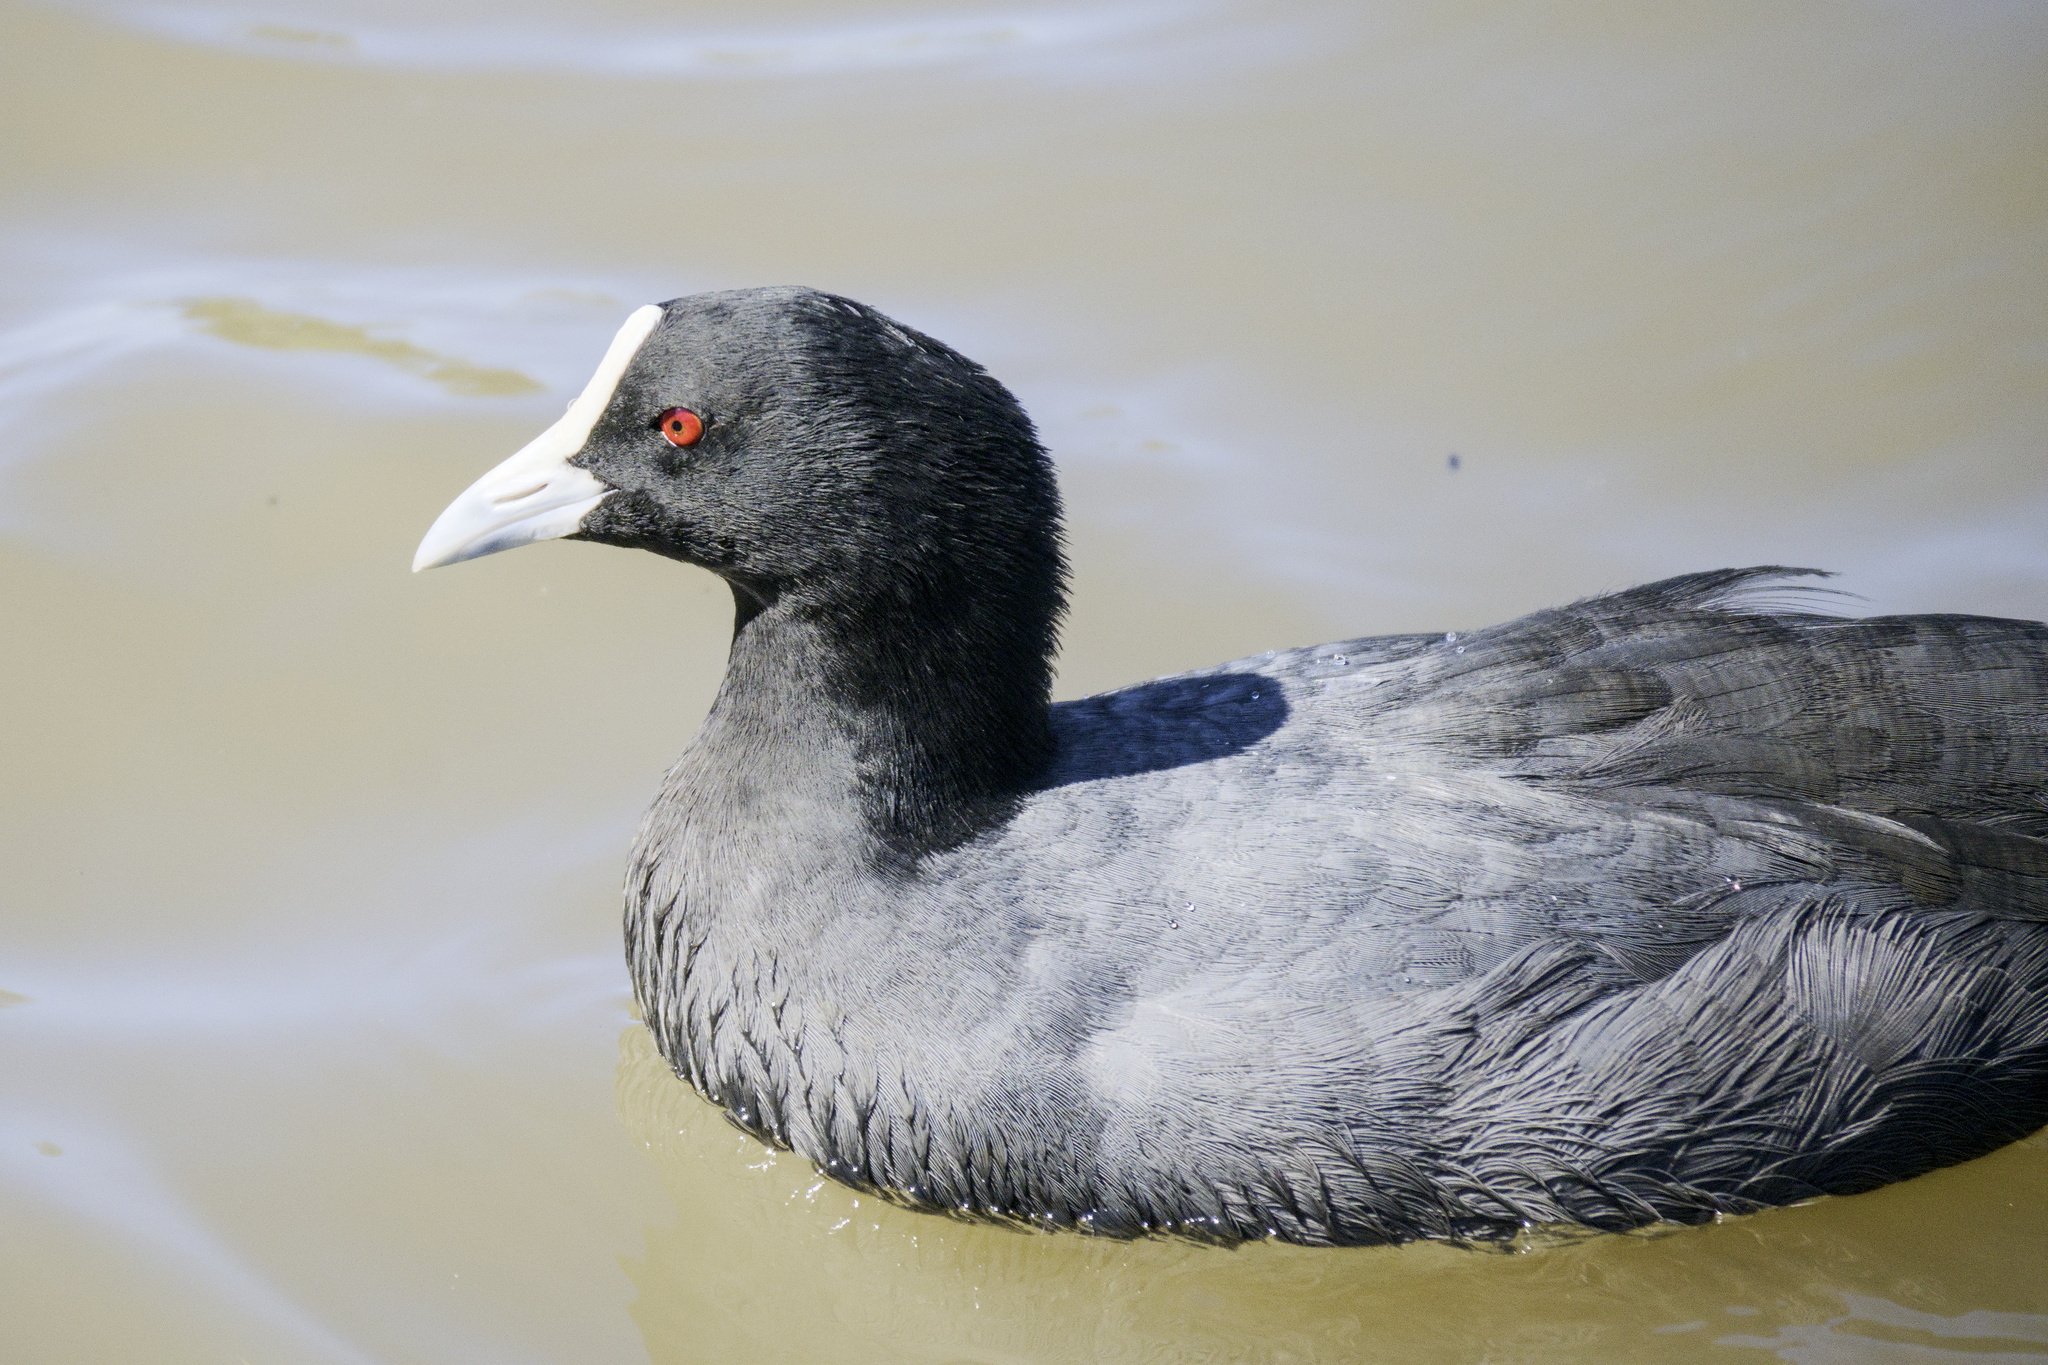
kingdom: Animalia
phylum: Chordata
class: Aves
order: Gruiformes
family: Rallidae
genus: Fulica
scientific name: Fulica atra
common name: Eurasian coot
